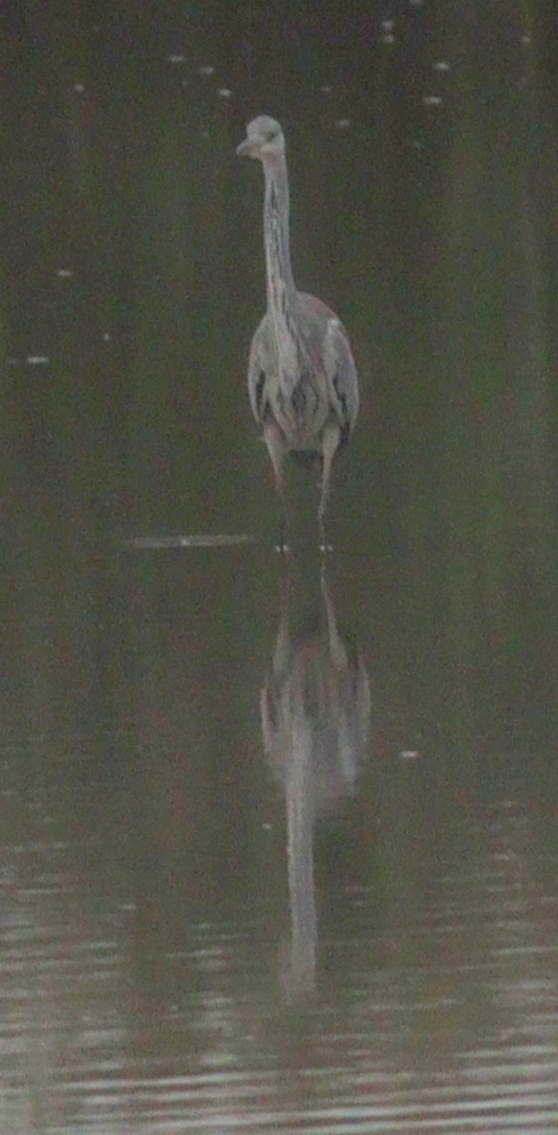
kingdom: Animalia
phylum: Chordata
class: Aves
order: Pelecaniformes
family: Ardeidae
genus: Ardea
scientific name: Ardea cinerea
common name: Grey heron
